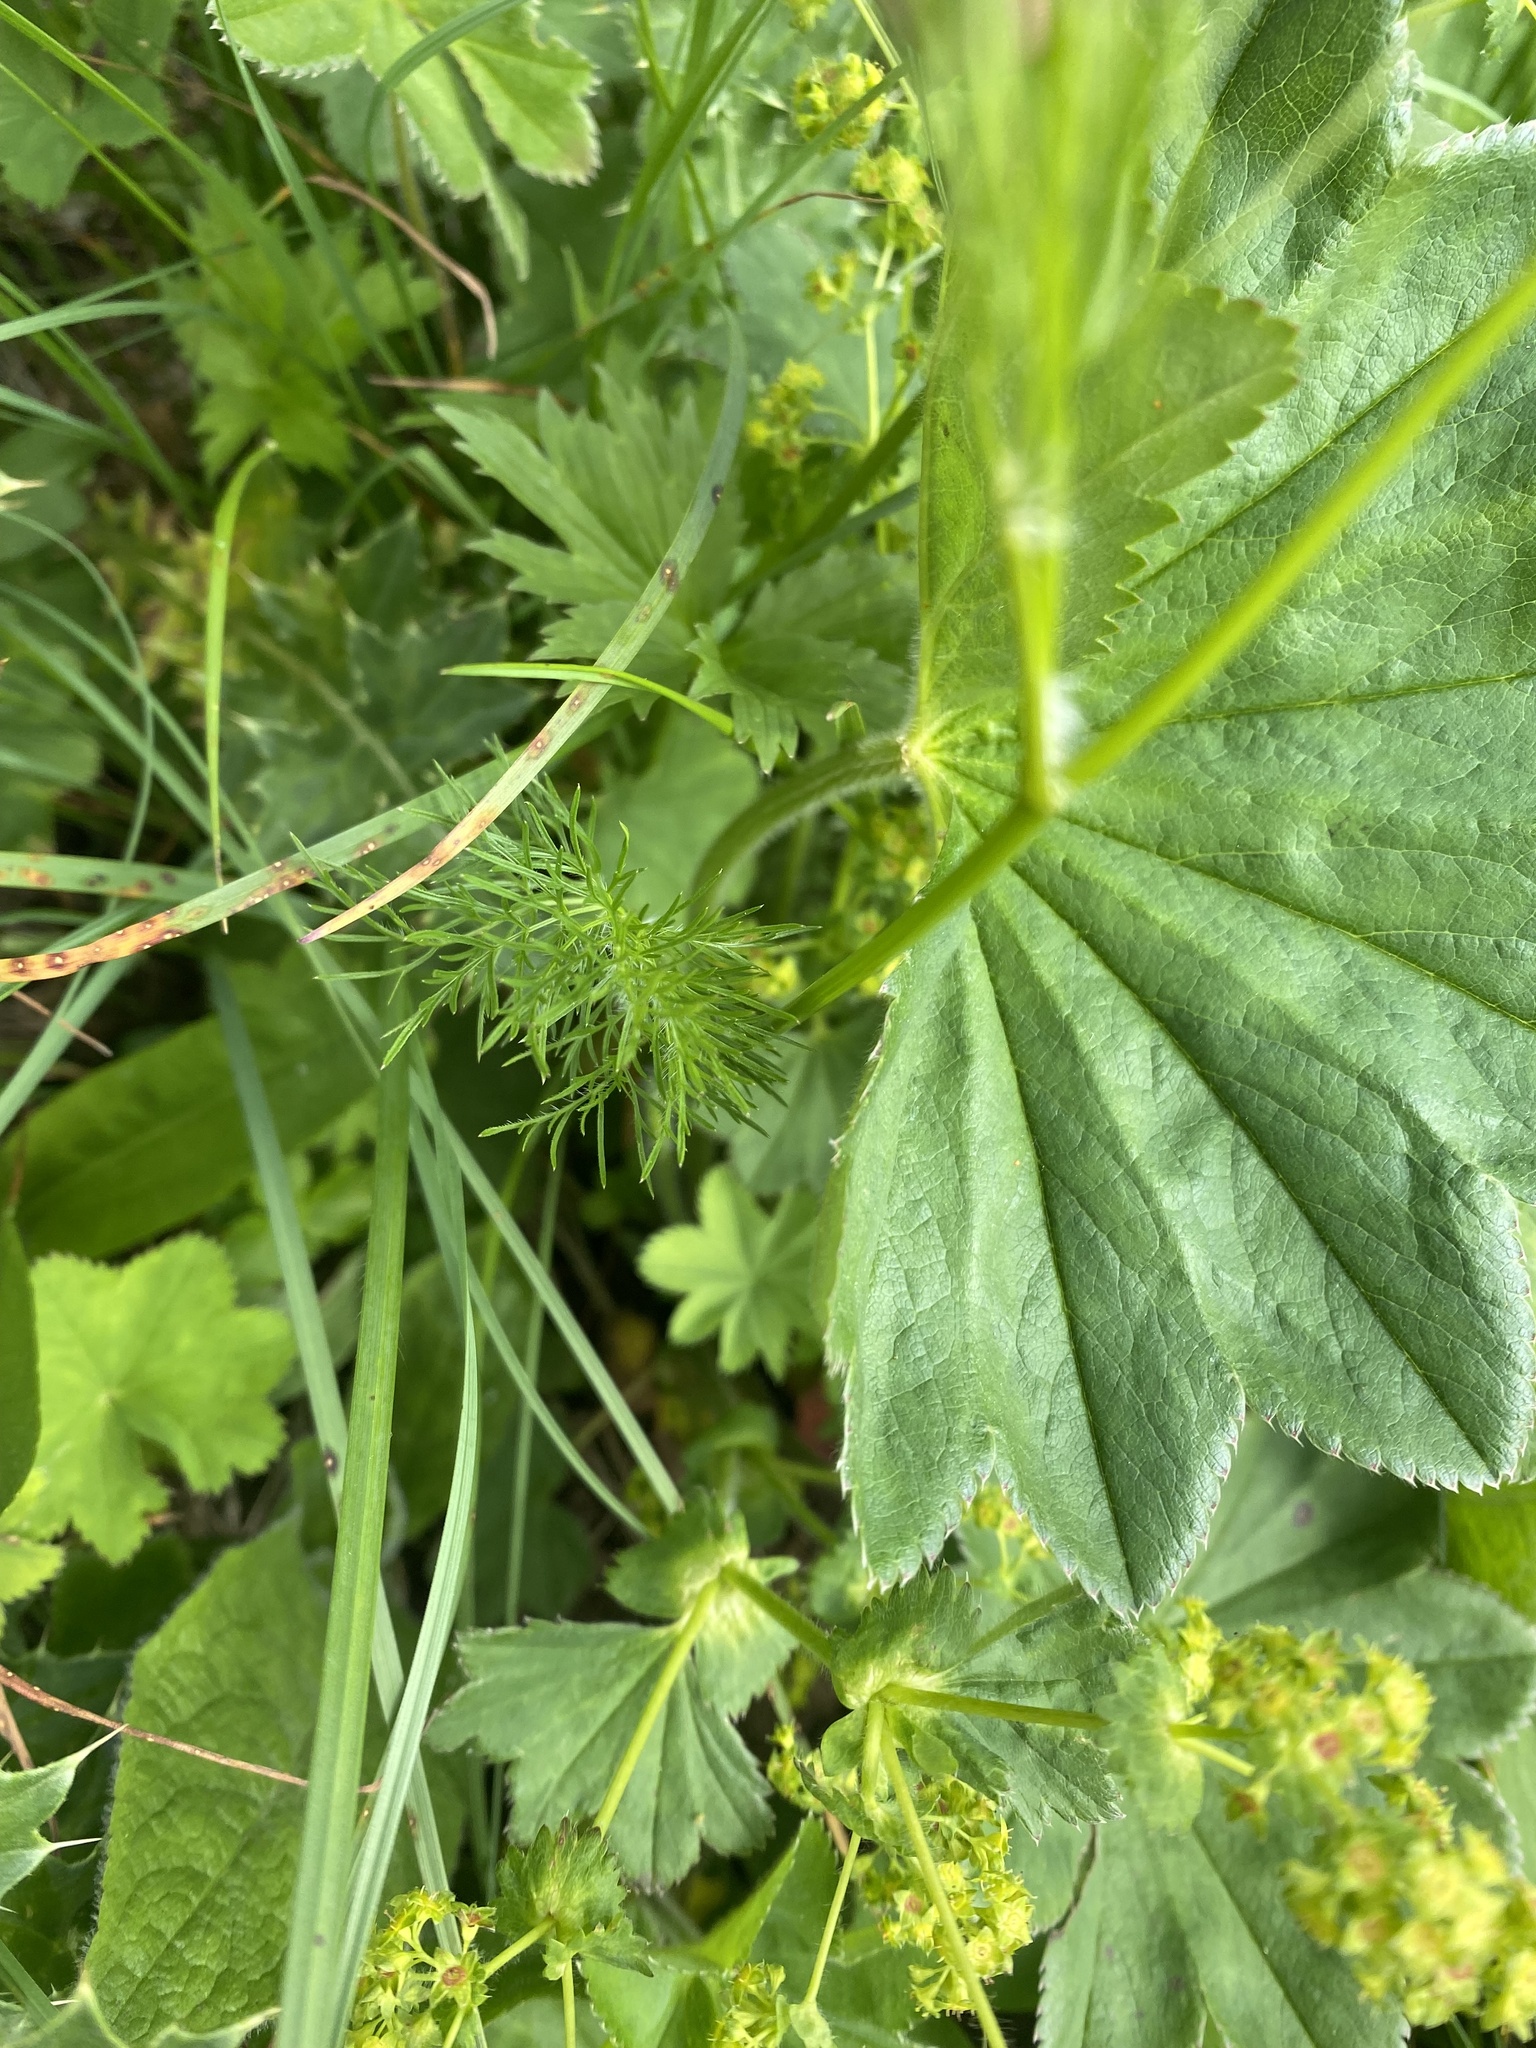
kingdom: Plantae
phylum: Tracheophyta
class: Magnoliopsida
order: Apiales
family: Apiaceae
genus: Chaerophyllum
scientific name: Chaerophyllum roseum
